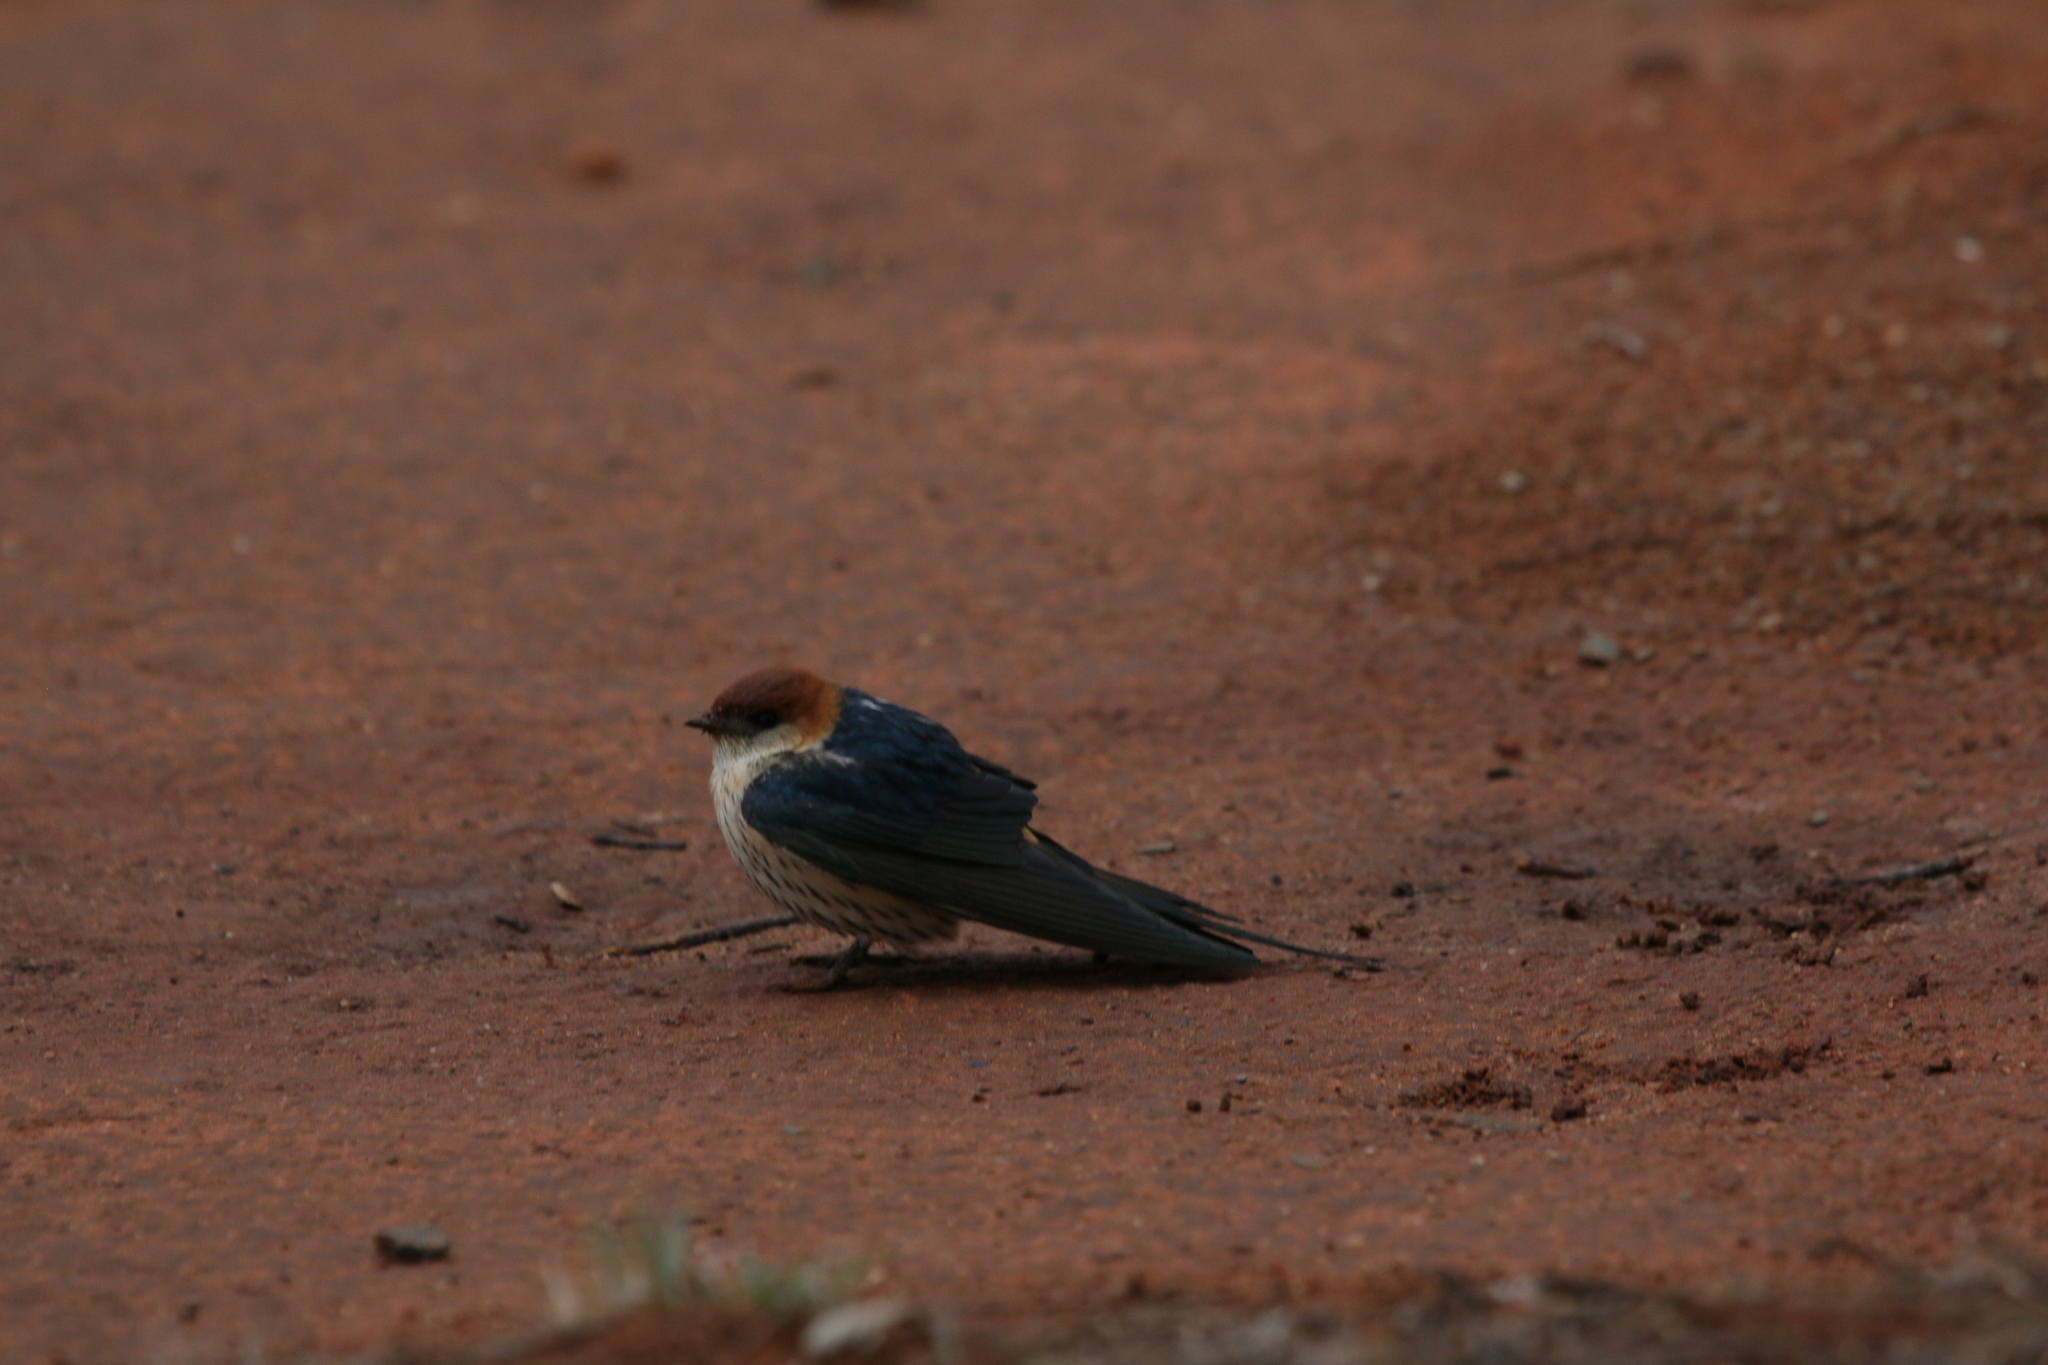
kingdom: Animalia
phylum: Chordata
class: Aves
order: Passeriformes
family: Hirundinidae
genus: Cecropis
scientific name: Cecropis cucullata
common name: Greater striped-swallow
